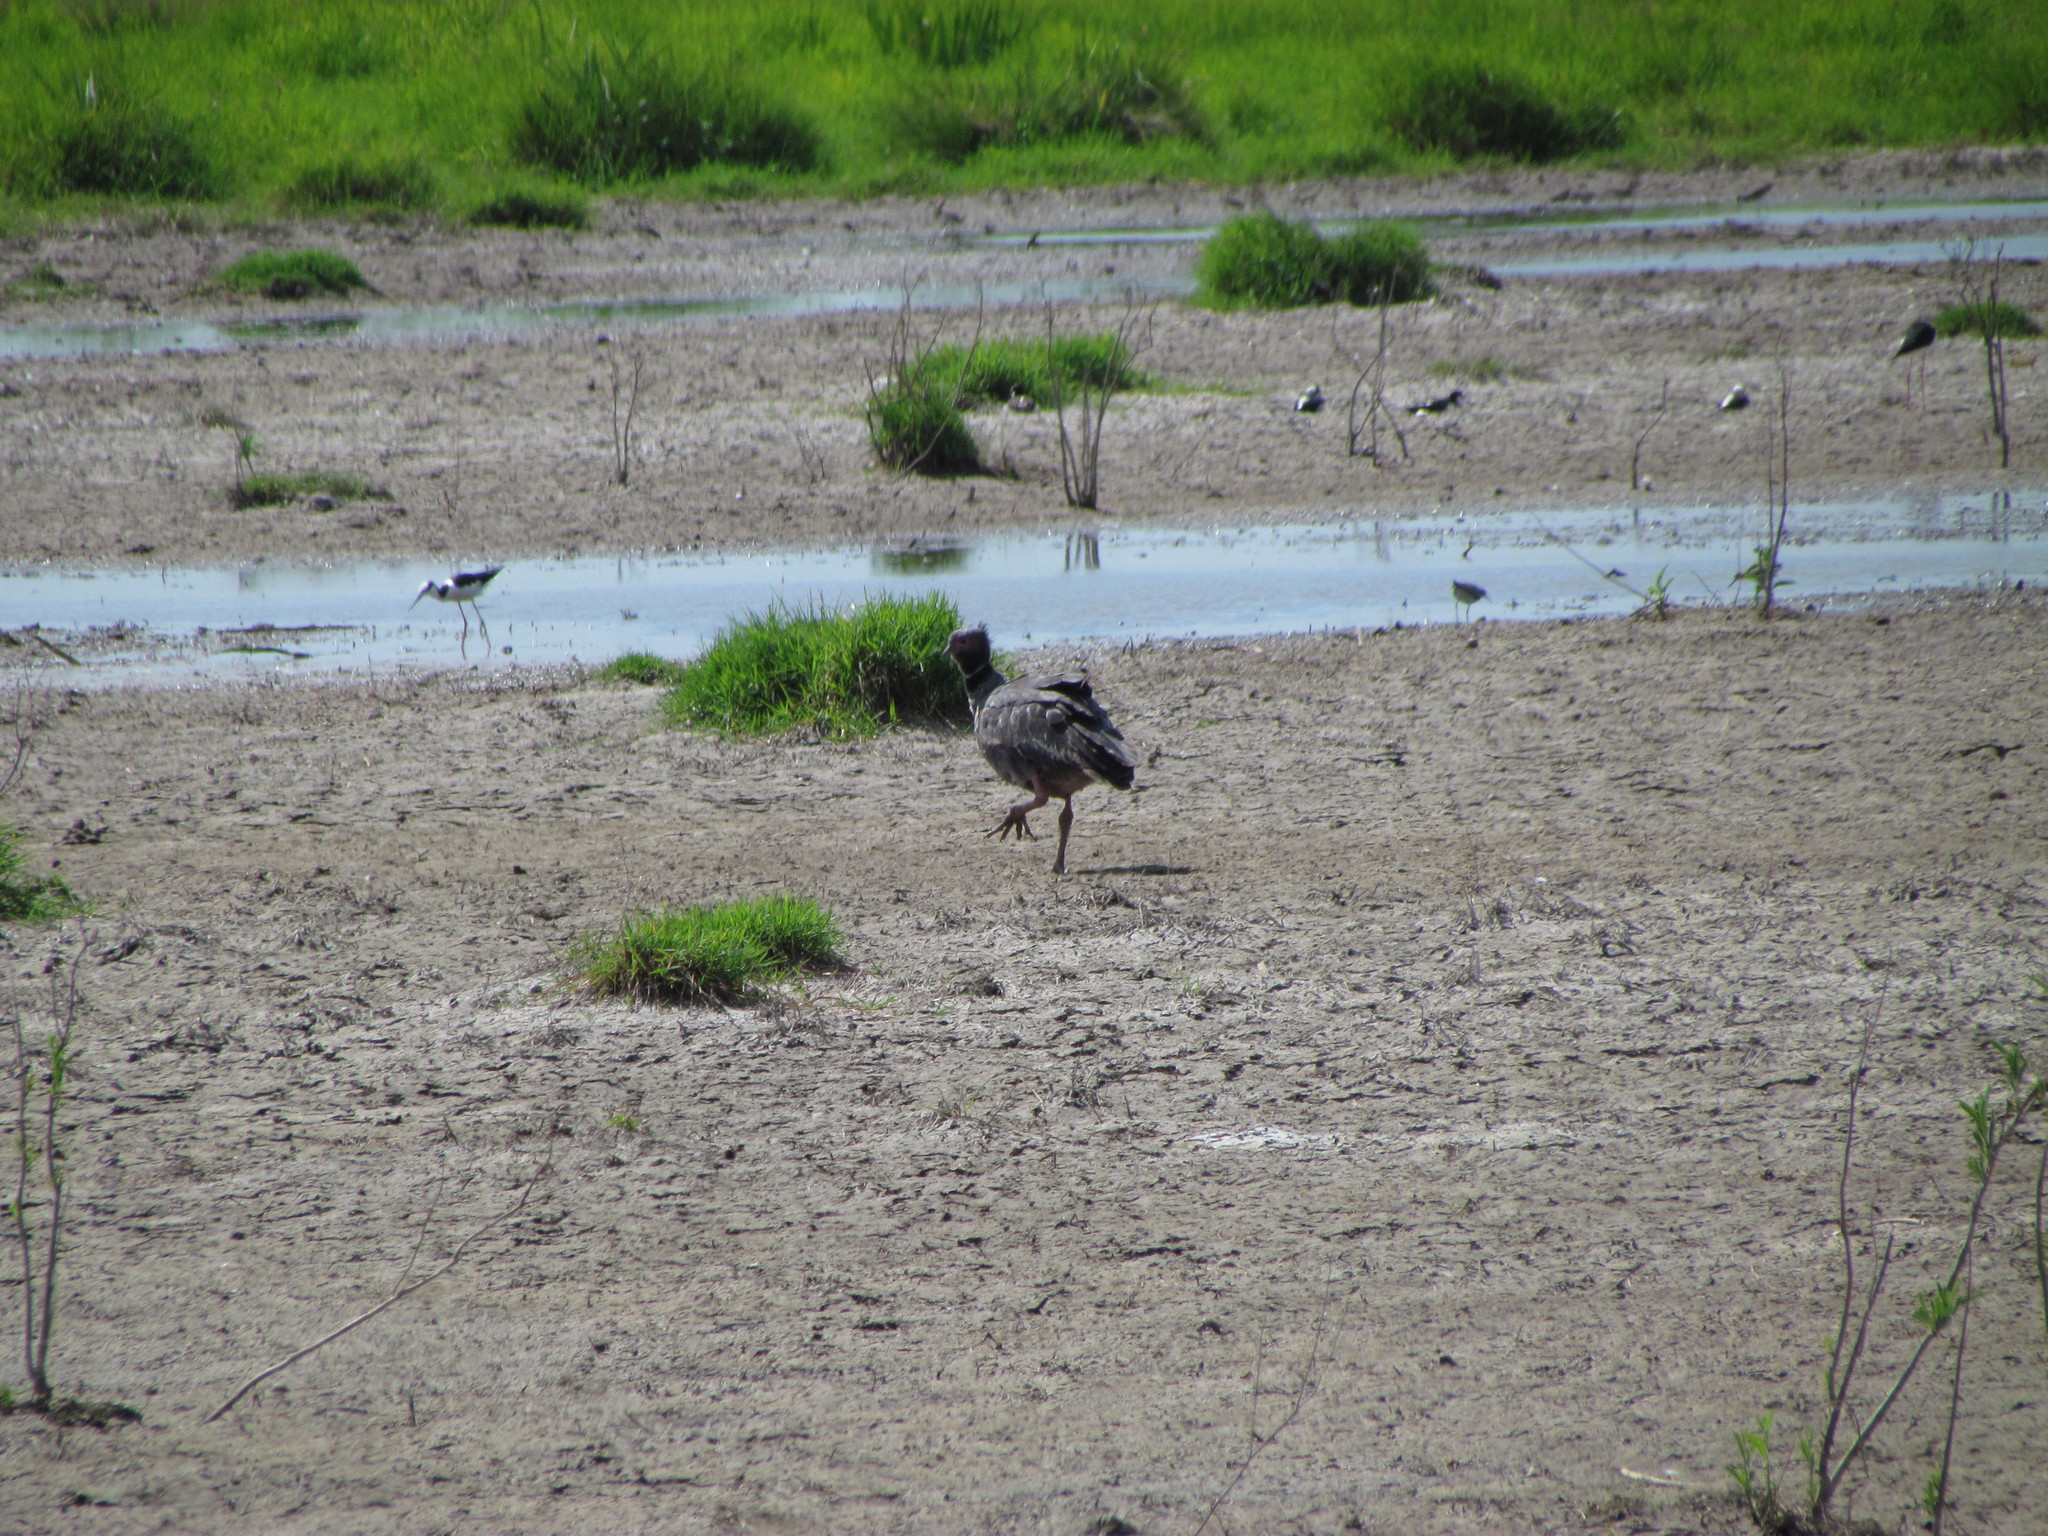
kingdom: Animalia
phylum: Chordata
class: Aves
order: Anseriformes
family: Anhimidae
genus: Chauna
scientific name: Chauna torquata
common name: Southern screamer
